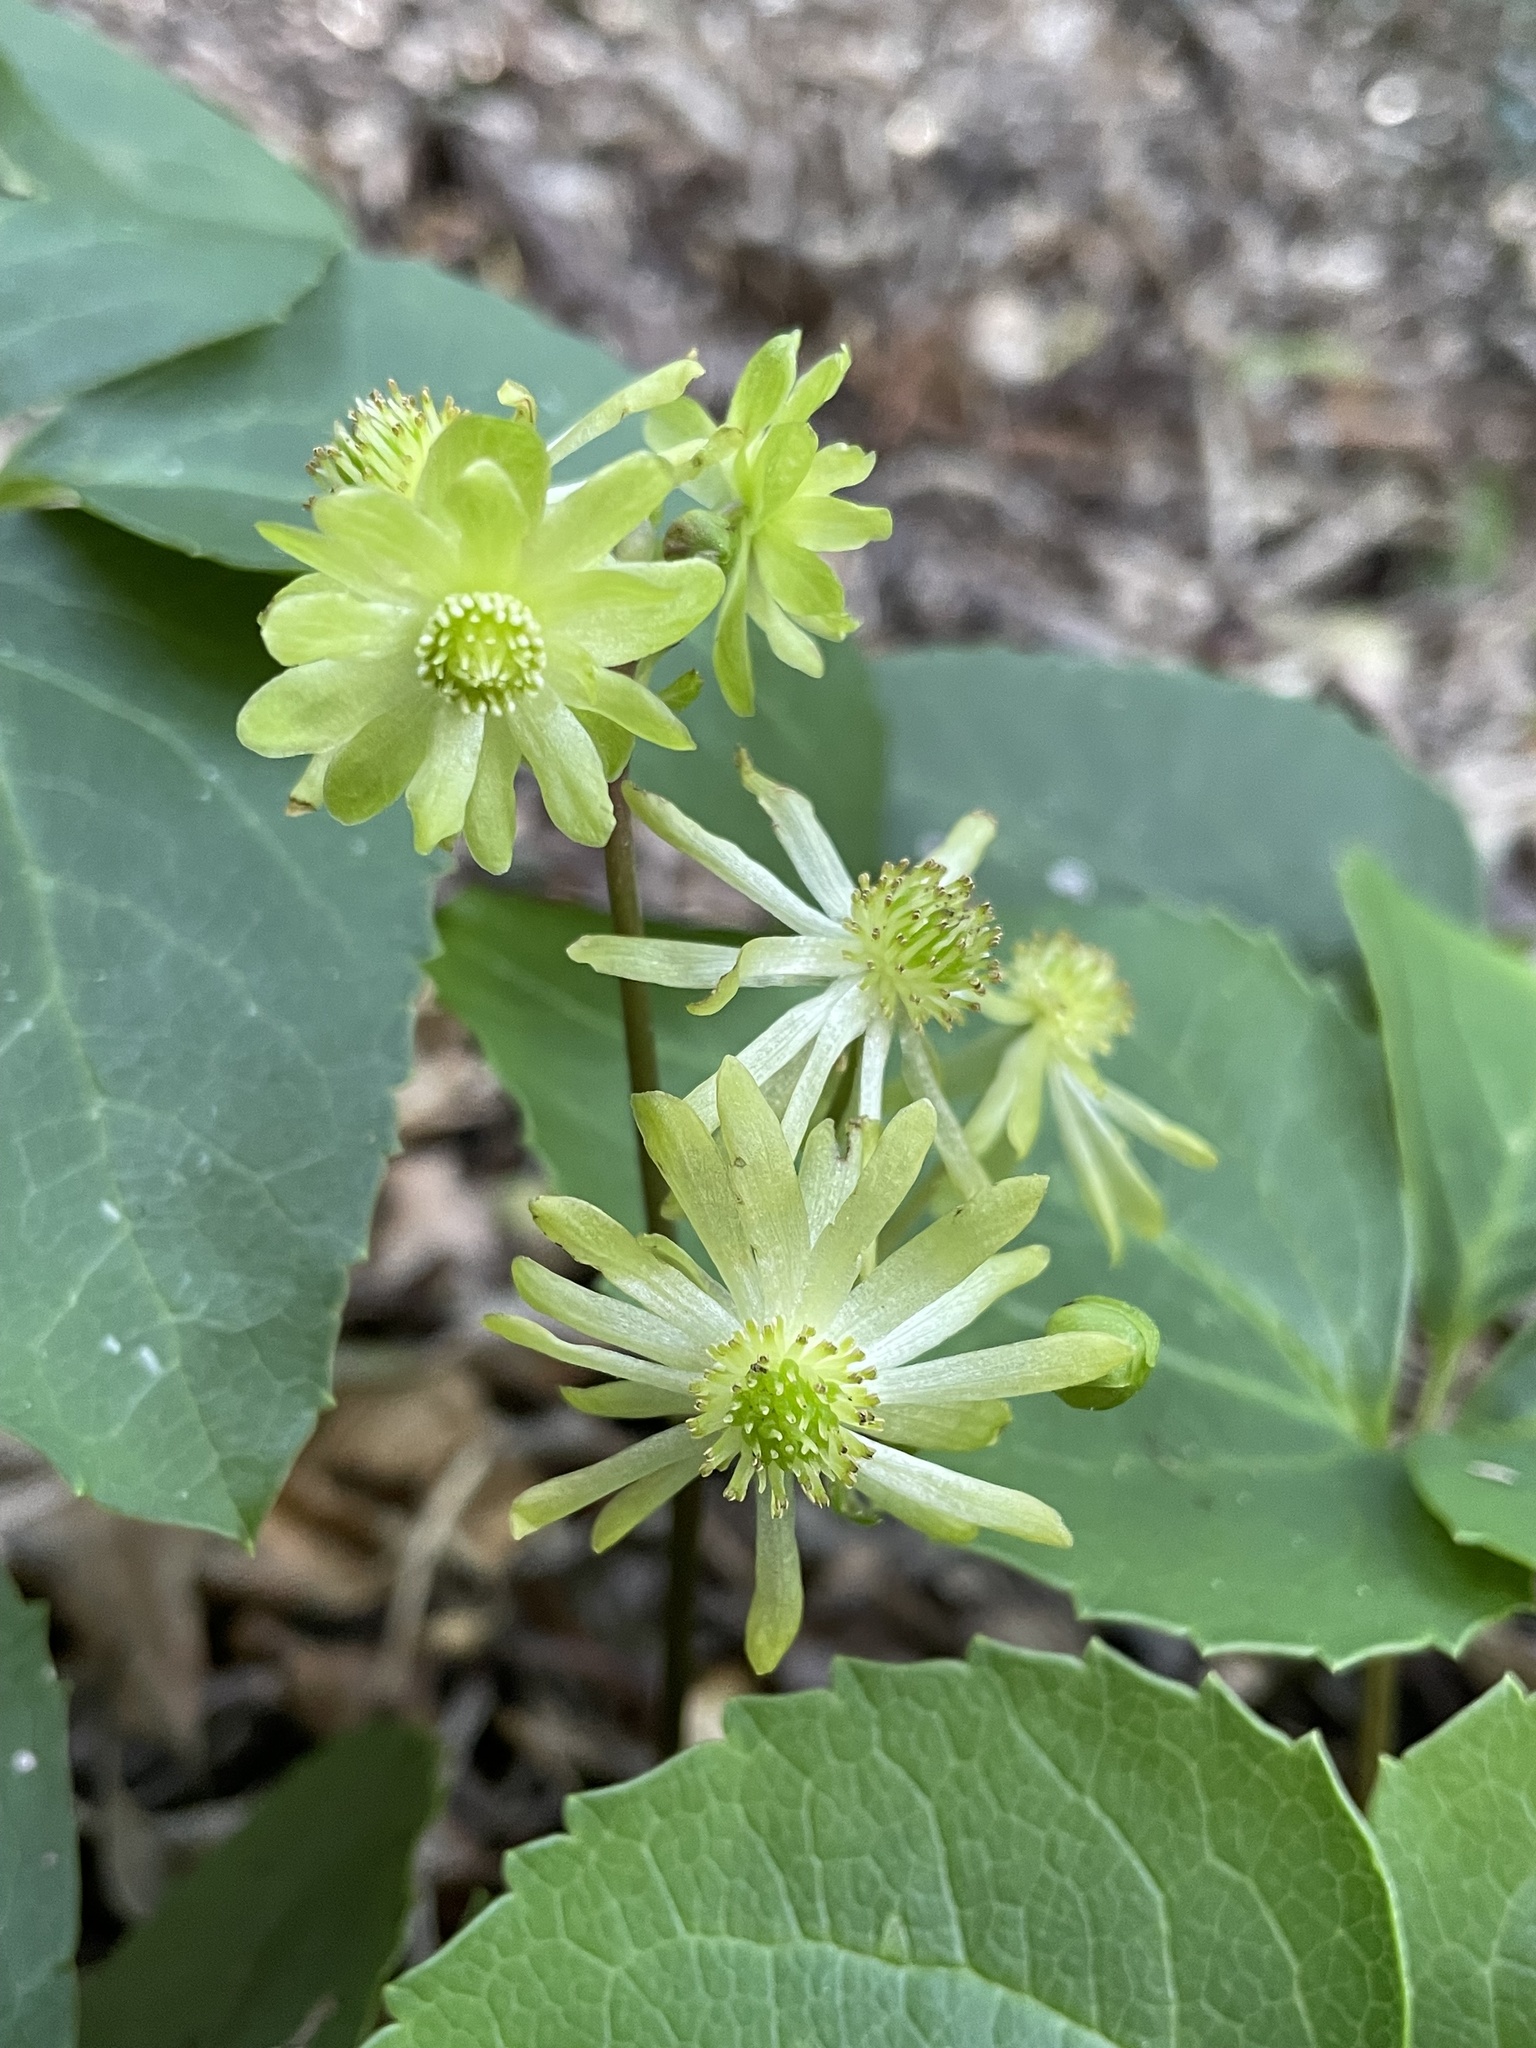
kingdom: Plantae
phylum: Tracheophyta
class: Magnoliopsida
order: Ranunculales
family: Ranunculaceae
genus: Knowltonia
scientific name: Knowltonia vesicatoria
